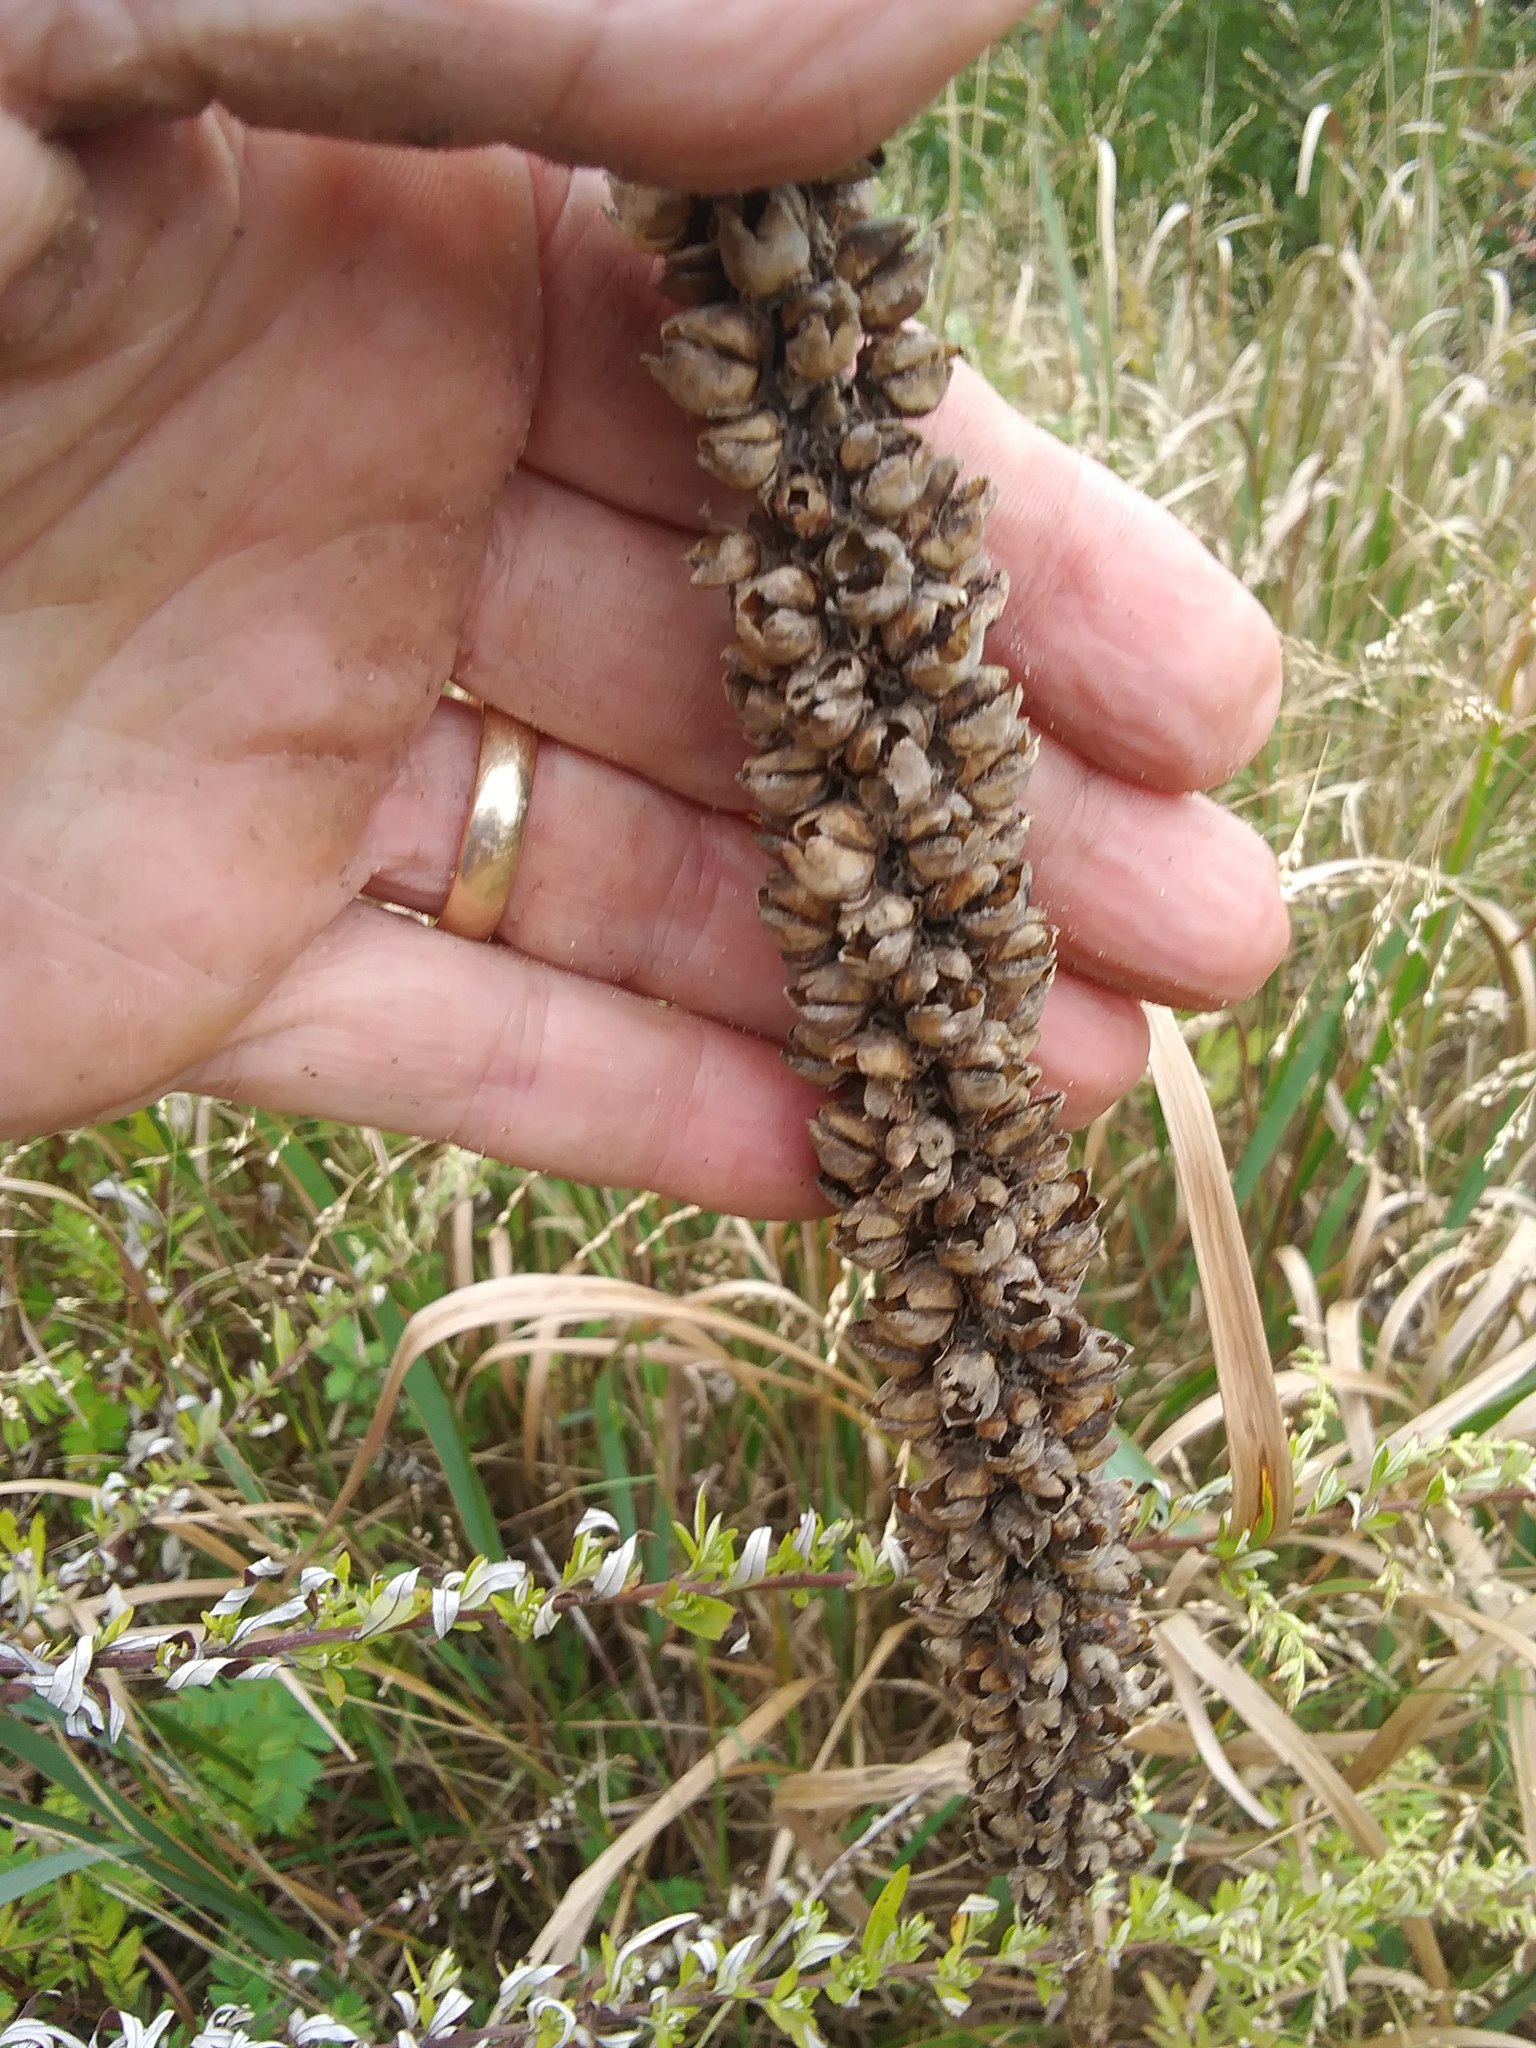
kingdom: Plantae
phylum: Tracheophyta
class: Magnoliopsida
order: Lamiales
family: Scrophulariaceae
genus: Verbascum
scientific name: Verbascum thapsus
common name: Common mullein
